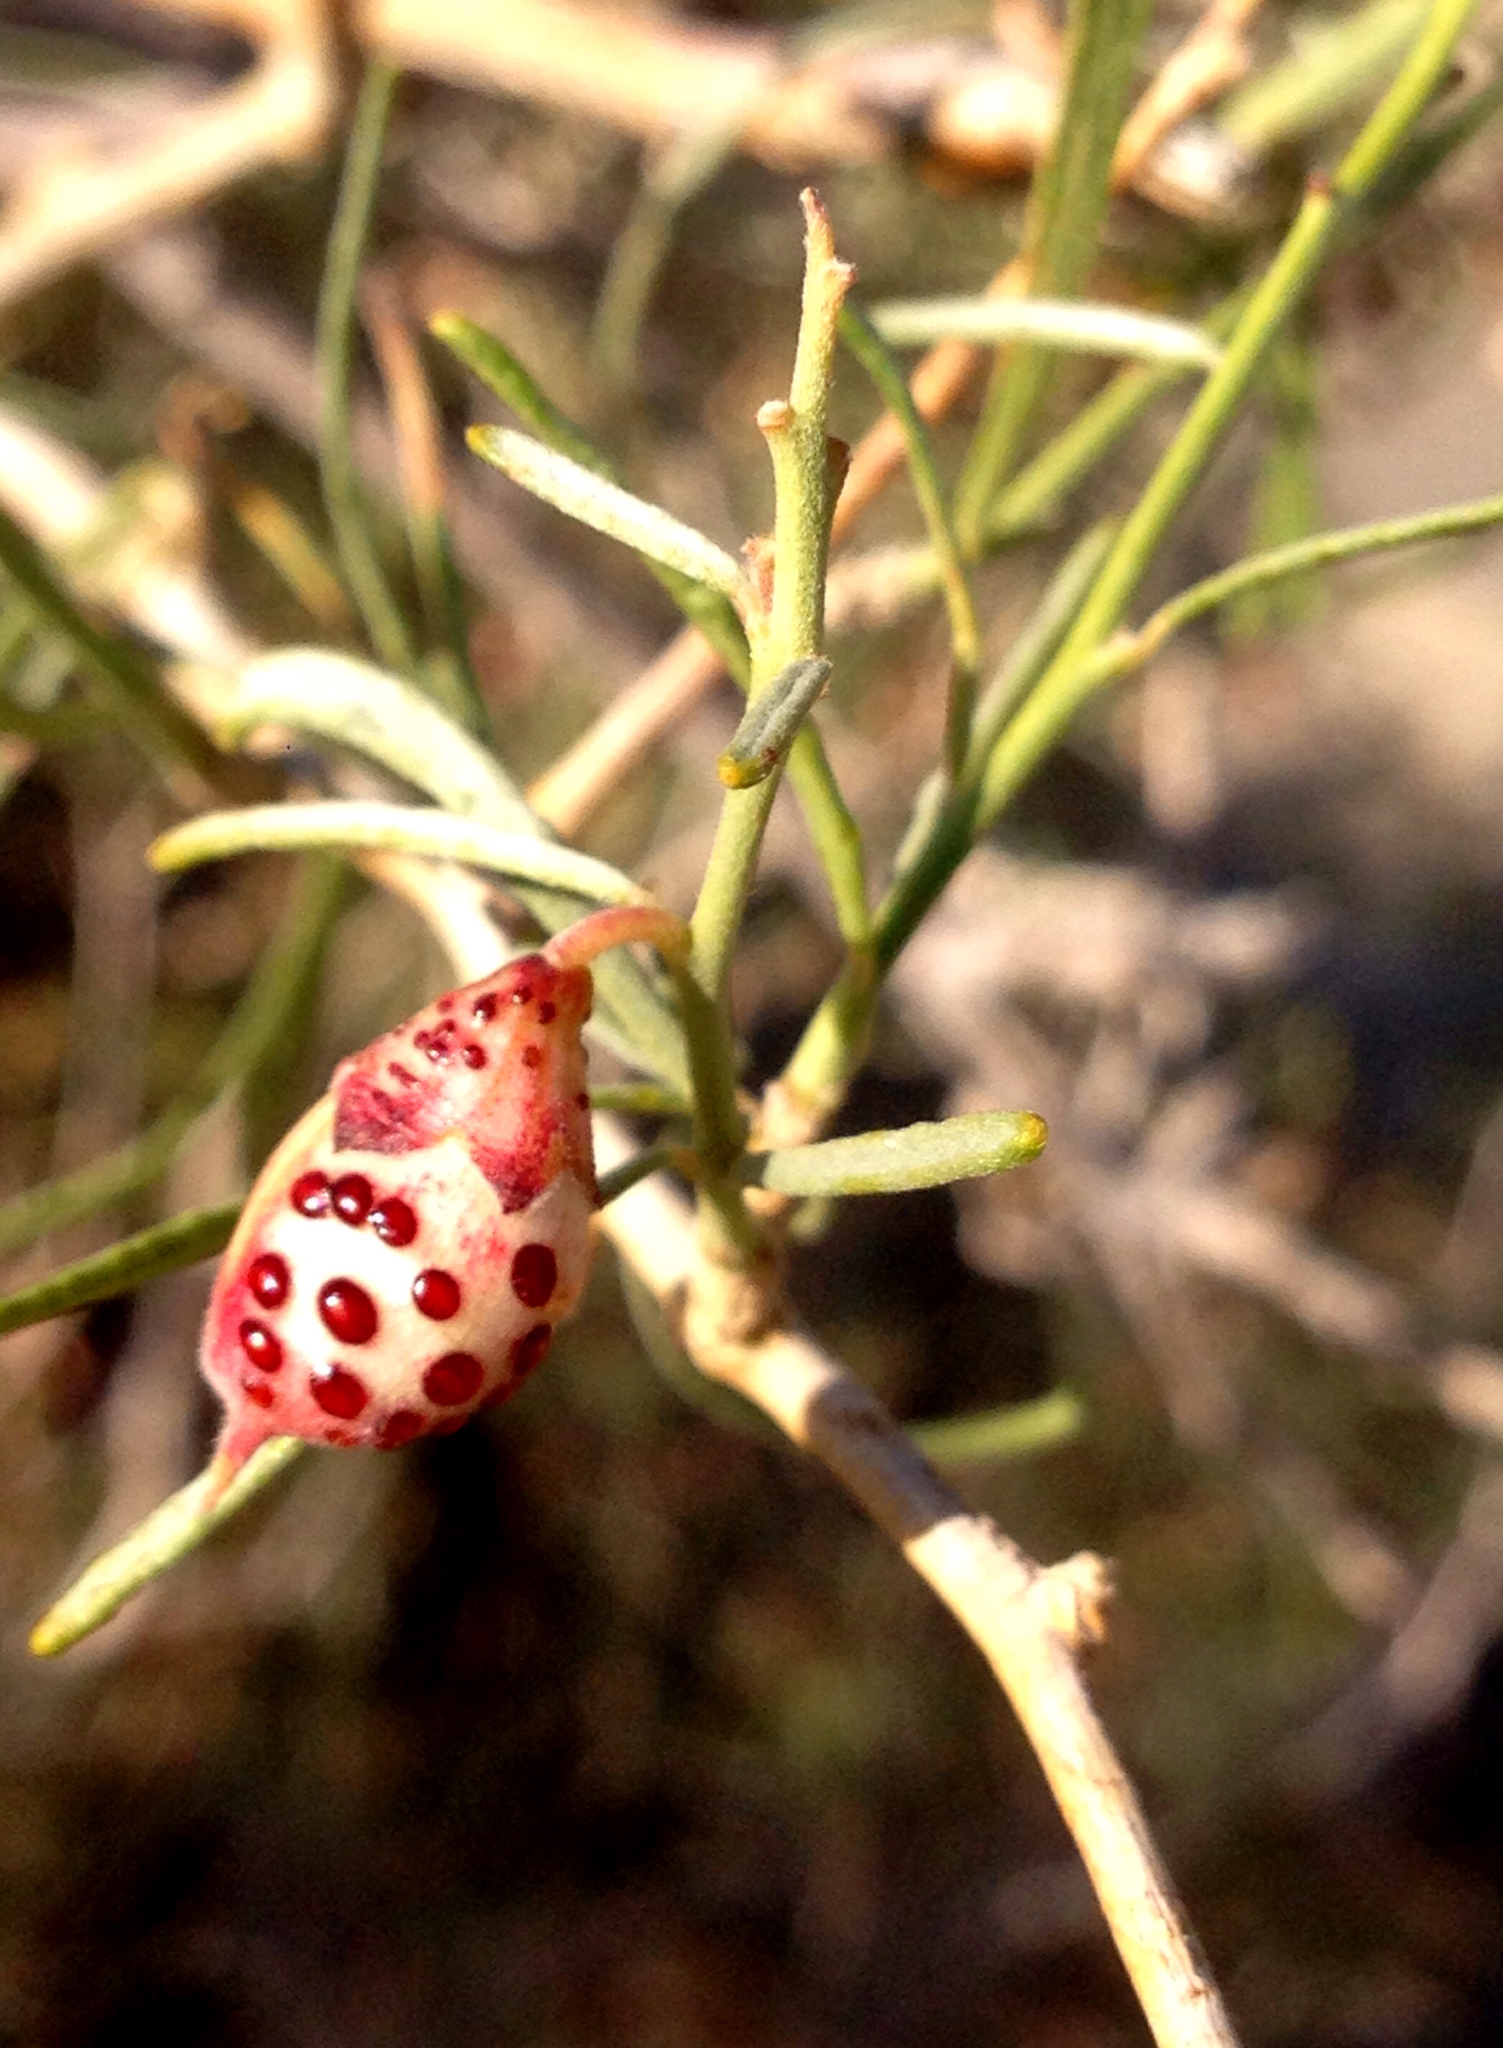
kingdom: Plantae
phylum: Tracheophyta
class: Magnoliopsida
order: Fabales
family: Fabaceae
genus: Psorothamnus
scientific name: Psorothamnus schottii
